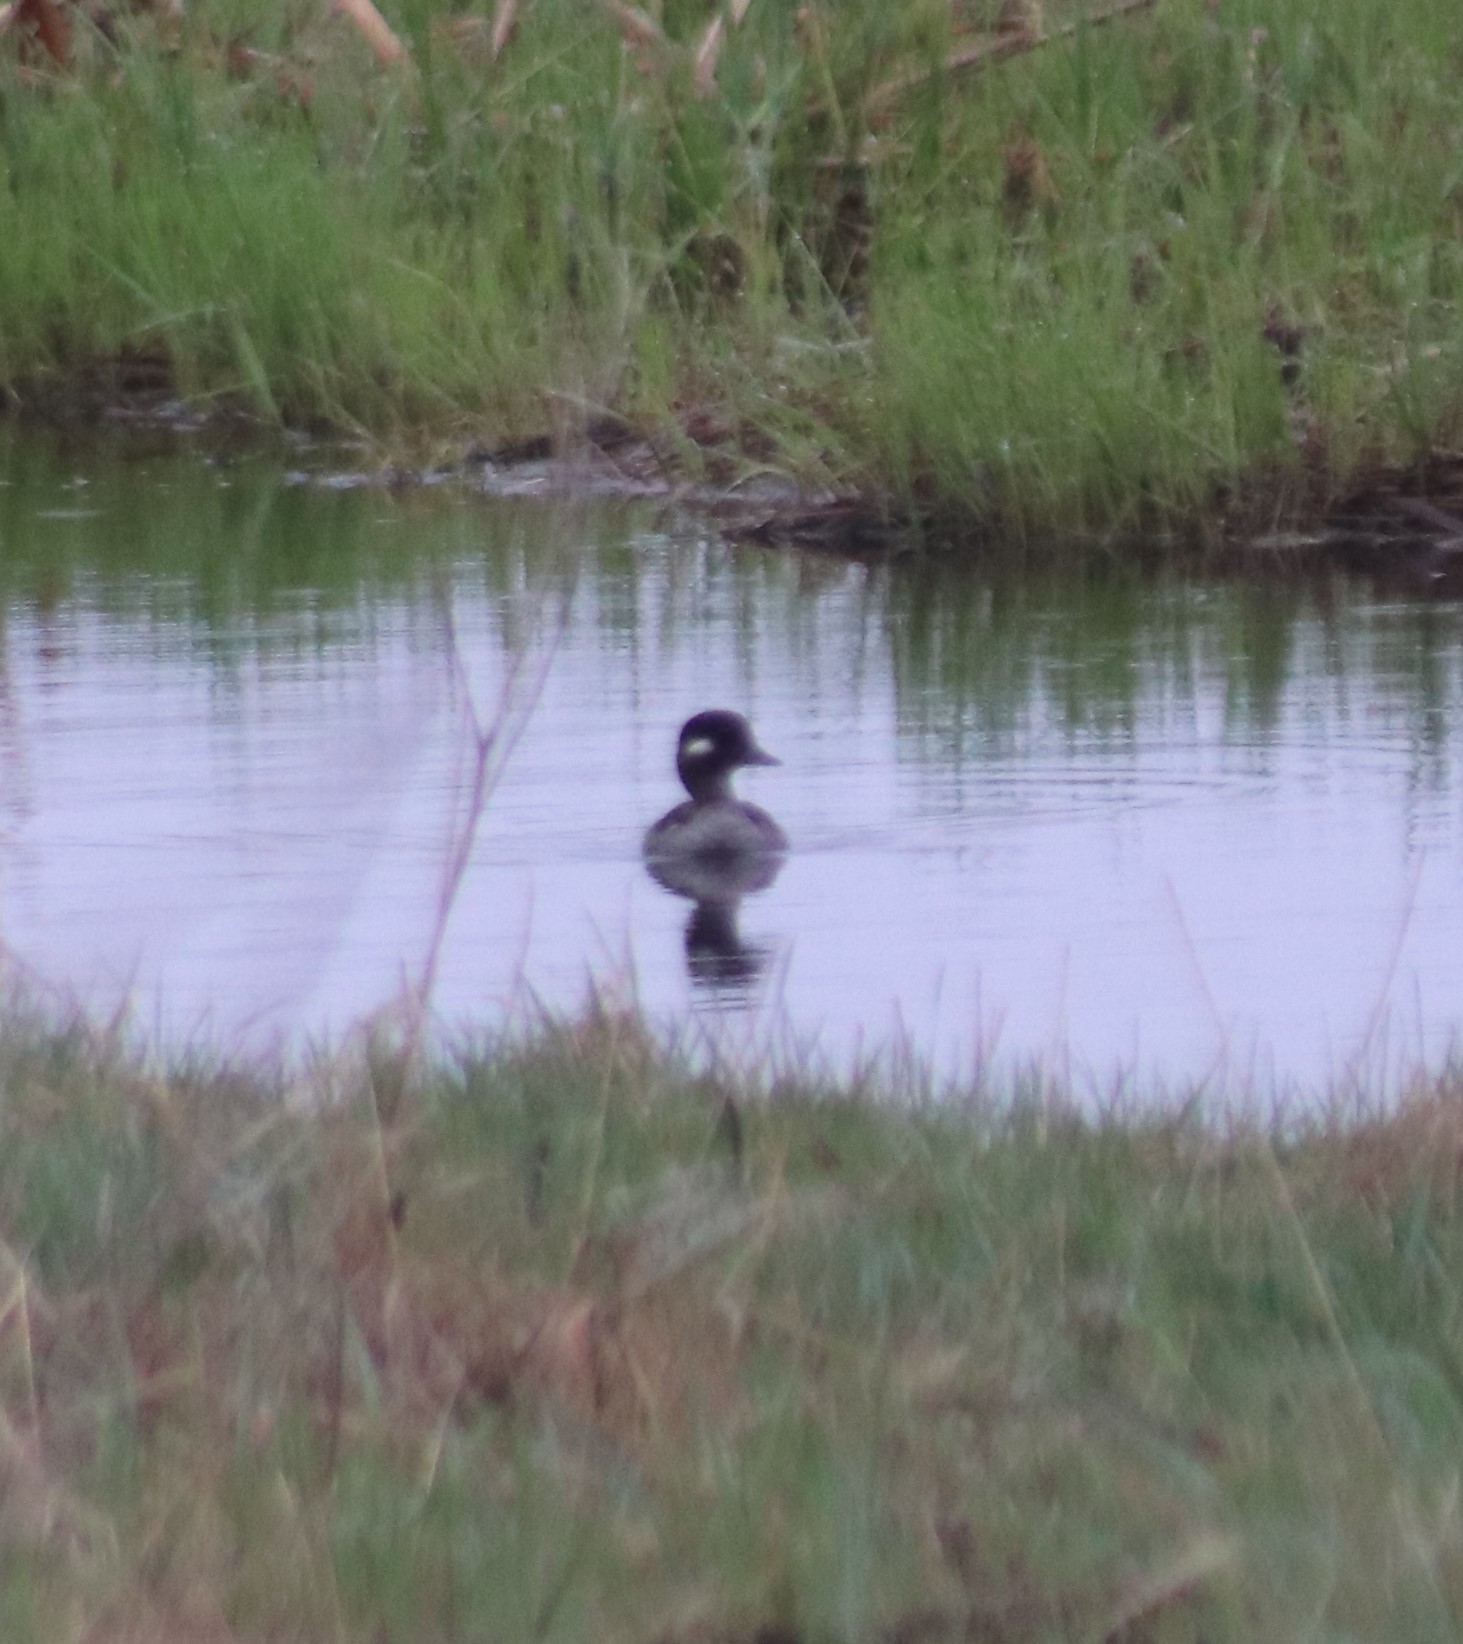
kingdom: Animalia
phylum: Chordata
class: Aves
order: Anseriformes
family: Anatidae
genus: Bucephala
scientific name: Bucephala albeola
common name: Bufflehead
